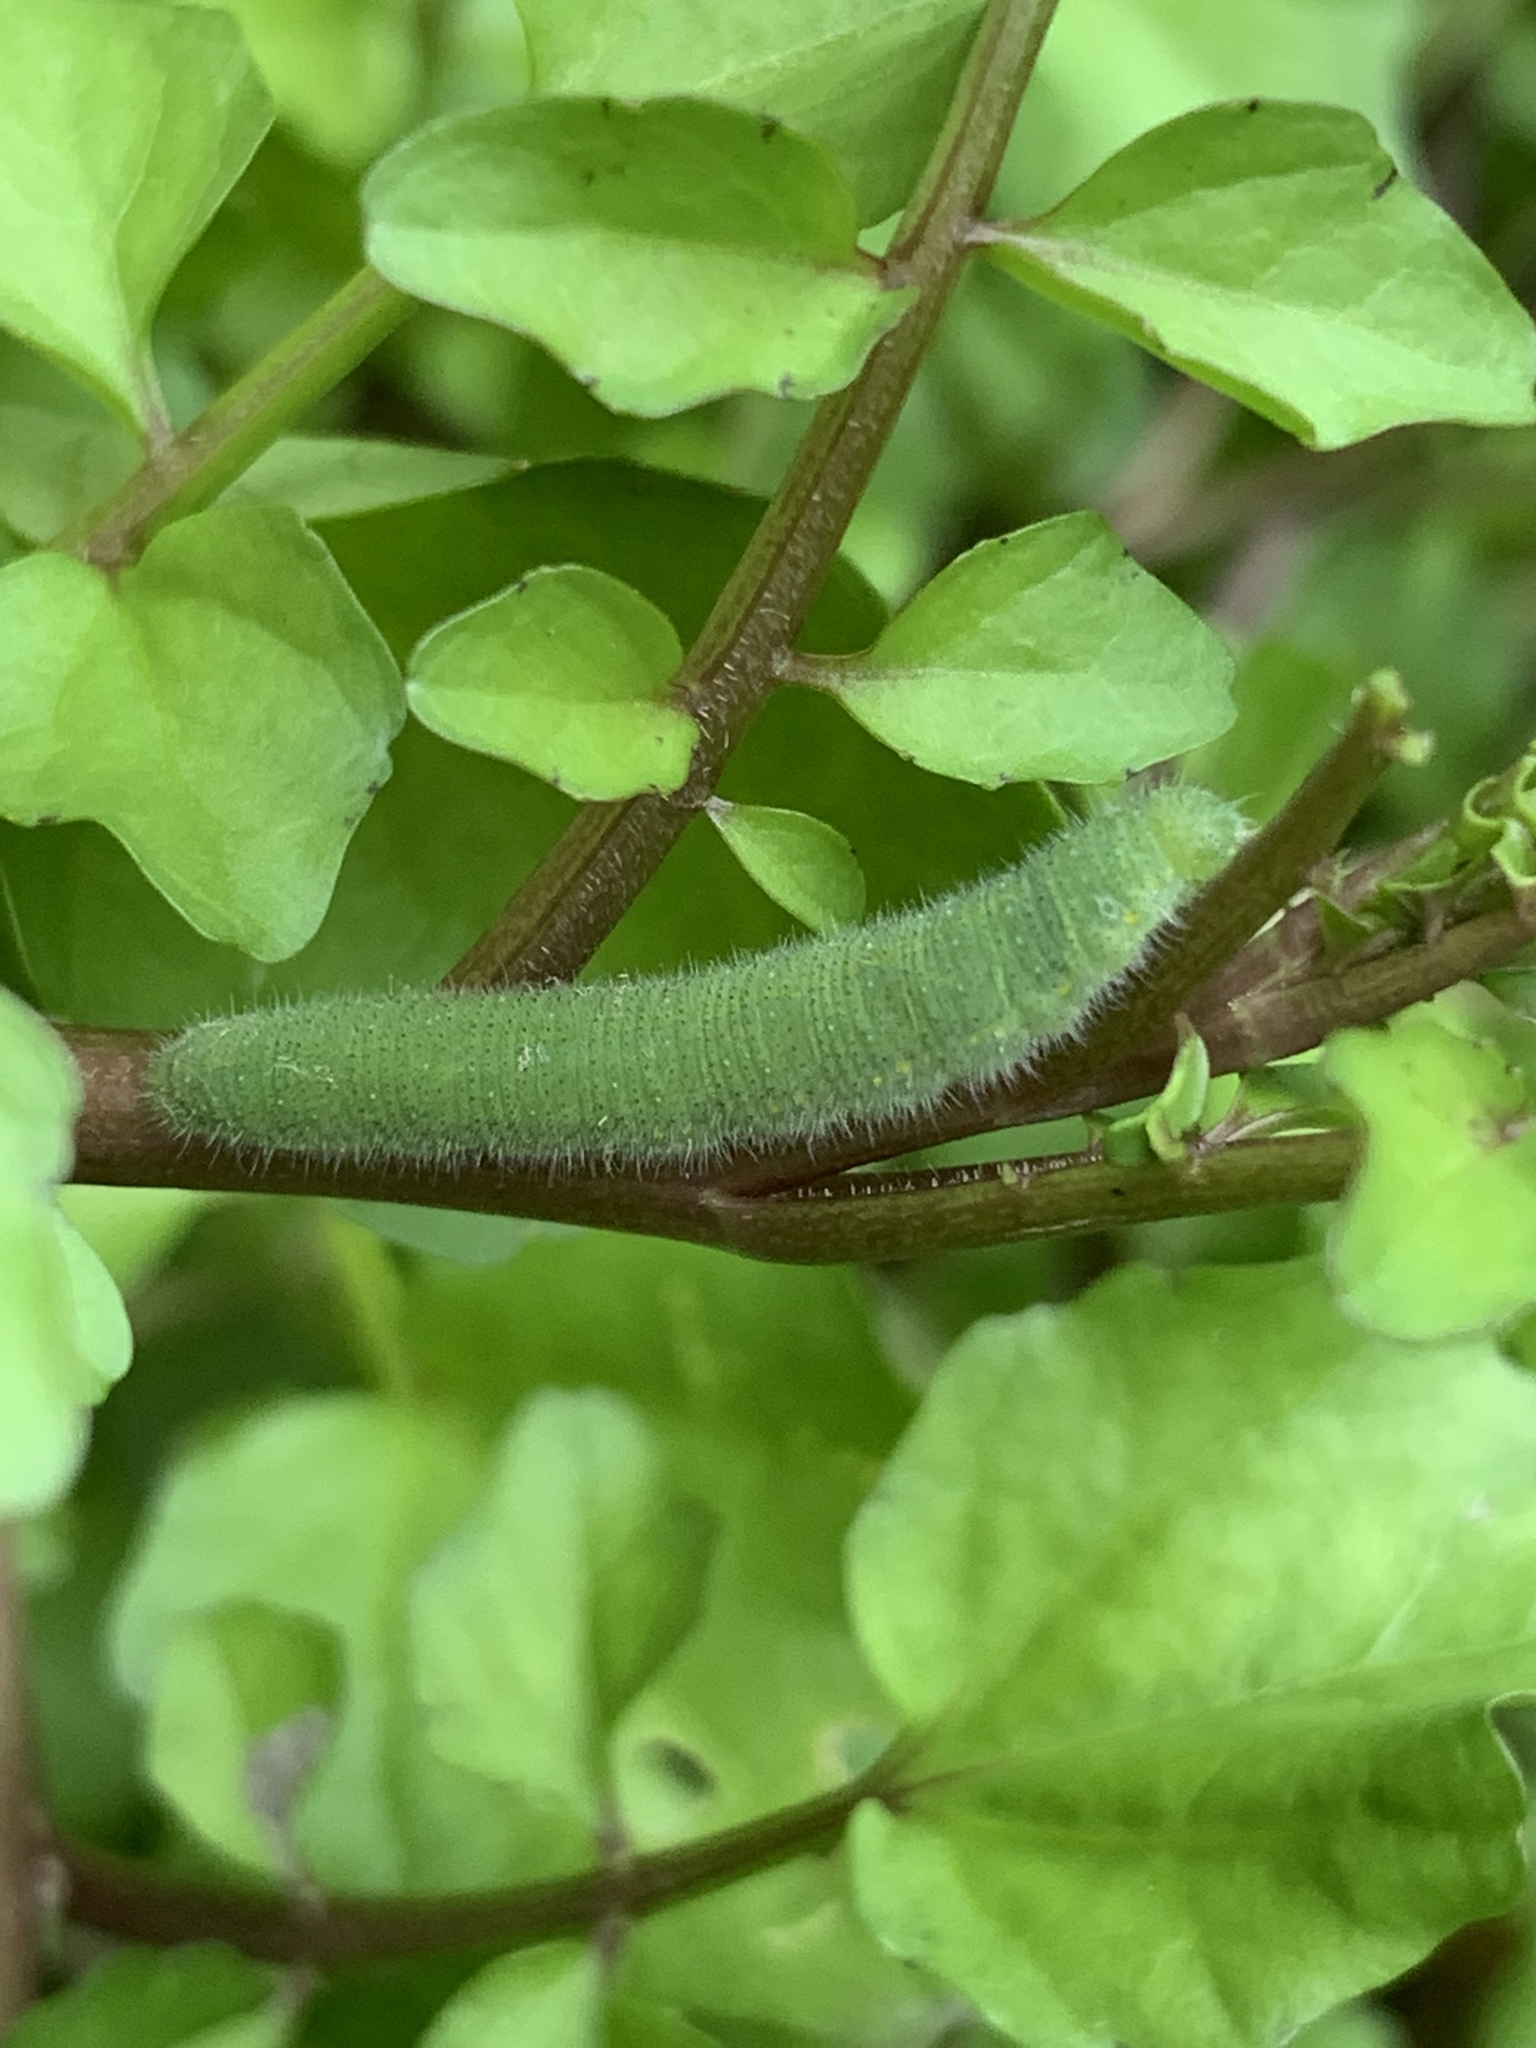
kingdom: Animalia
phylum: Arthropoda
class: Insecta
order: Lepidoptera
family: Pieridae
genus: Pieris
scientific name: Pieris rapae
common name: Small white
